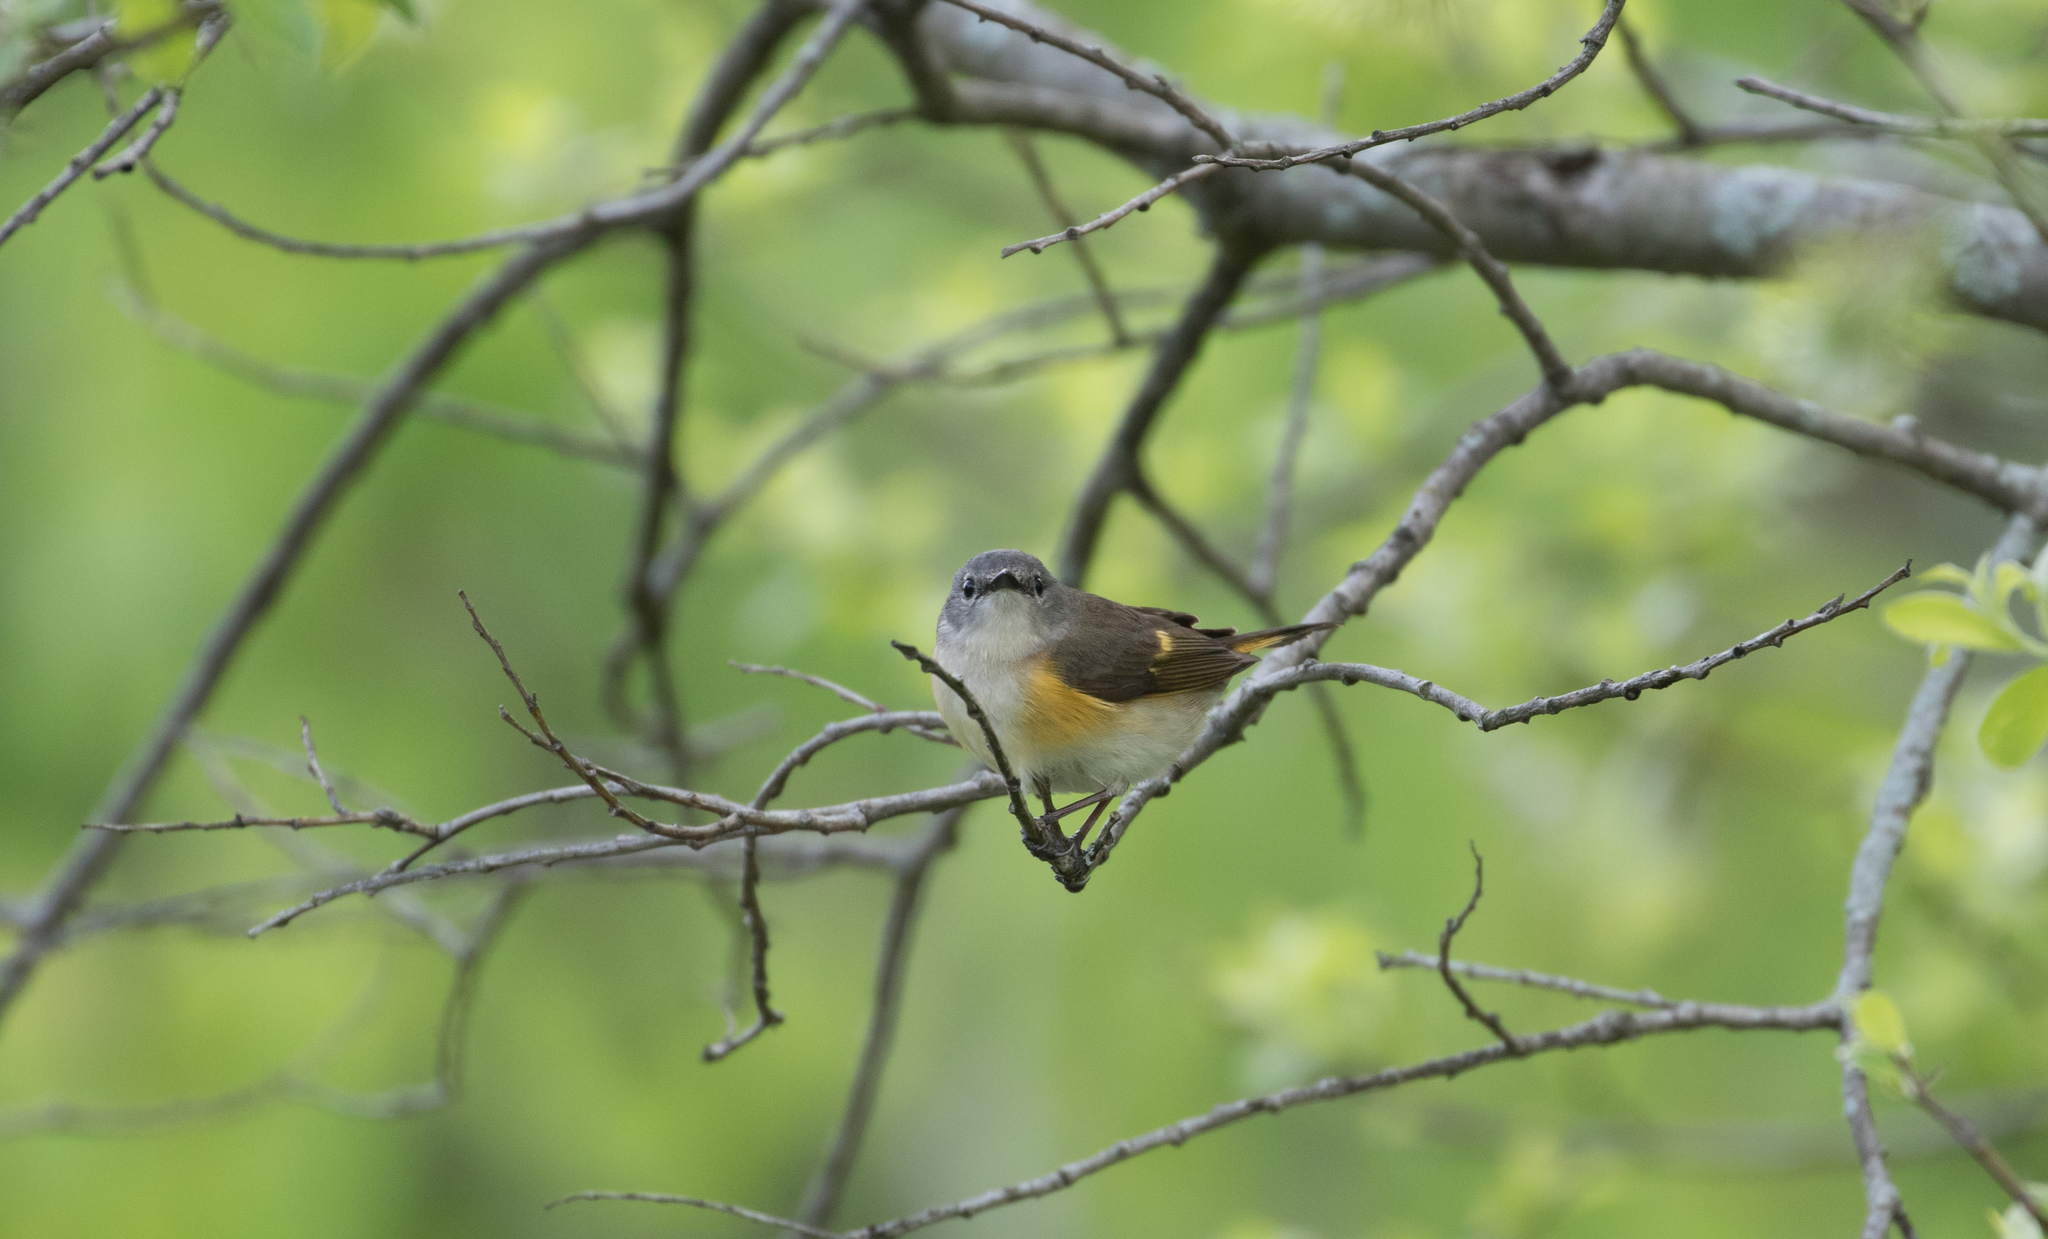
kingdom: Animalia
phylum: Chordata
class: Aves
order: Passeriformes
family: Parulidae
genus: Setophaga
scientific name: Setophaga ruticilla
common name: American redstart
